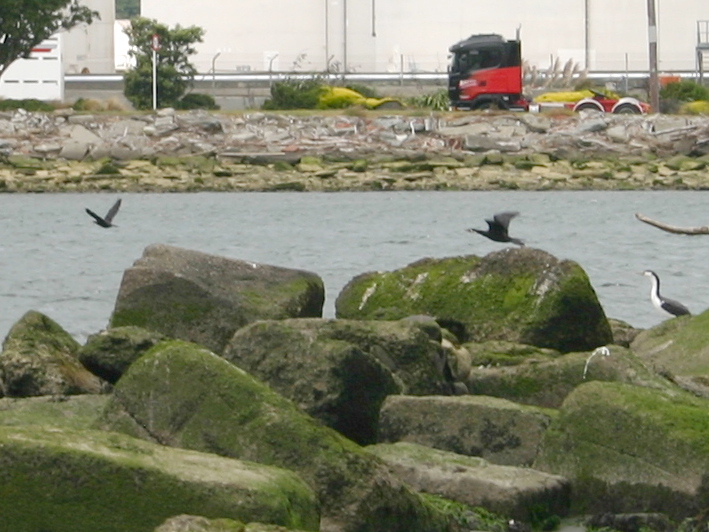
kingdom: Animalia
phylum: Chordata
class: Aves
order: Suliformes
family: Phalacrocoracidae
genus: Microcarbo
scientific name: Microcarbo melanoleucos
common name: Little pied cormorant
